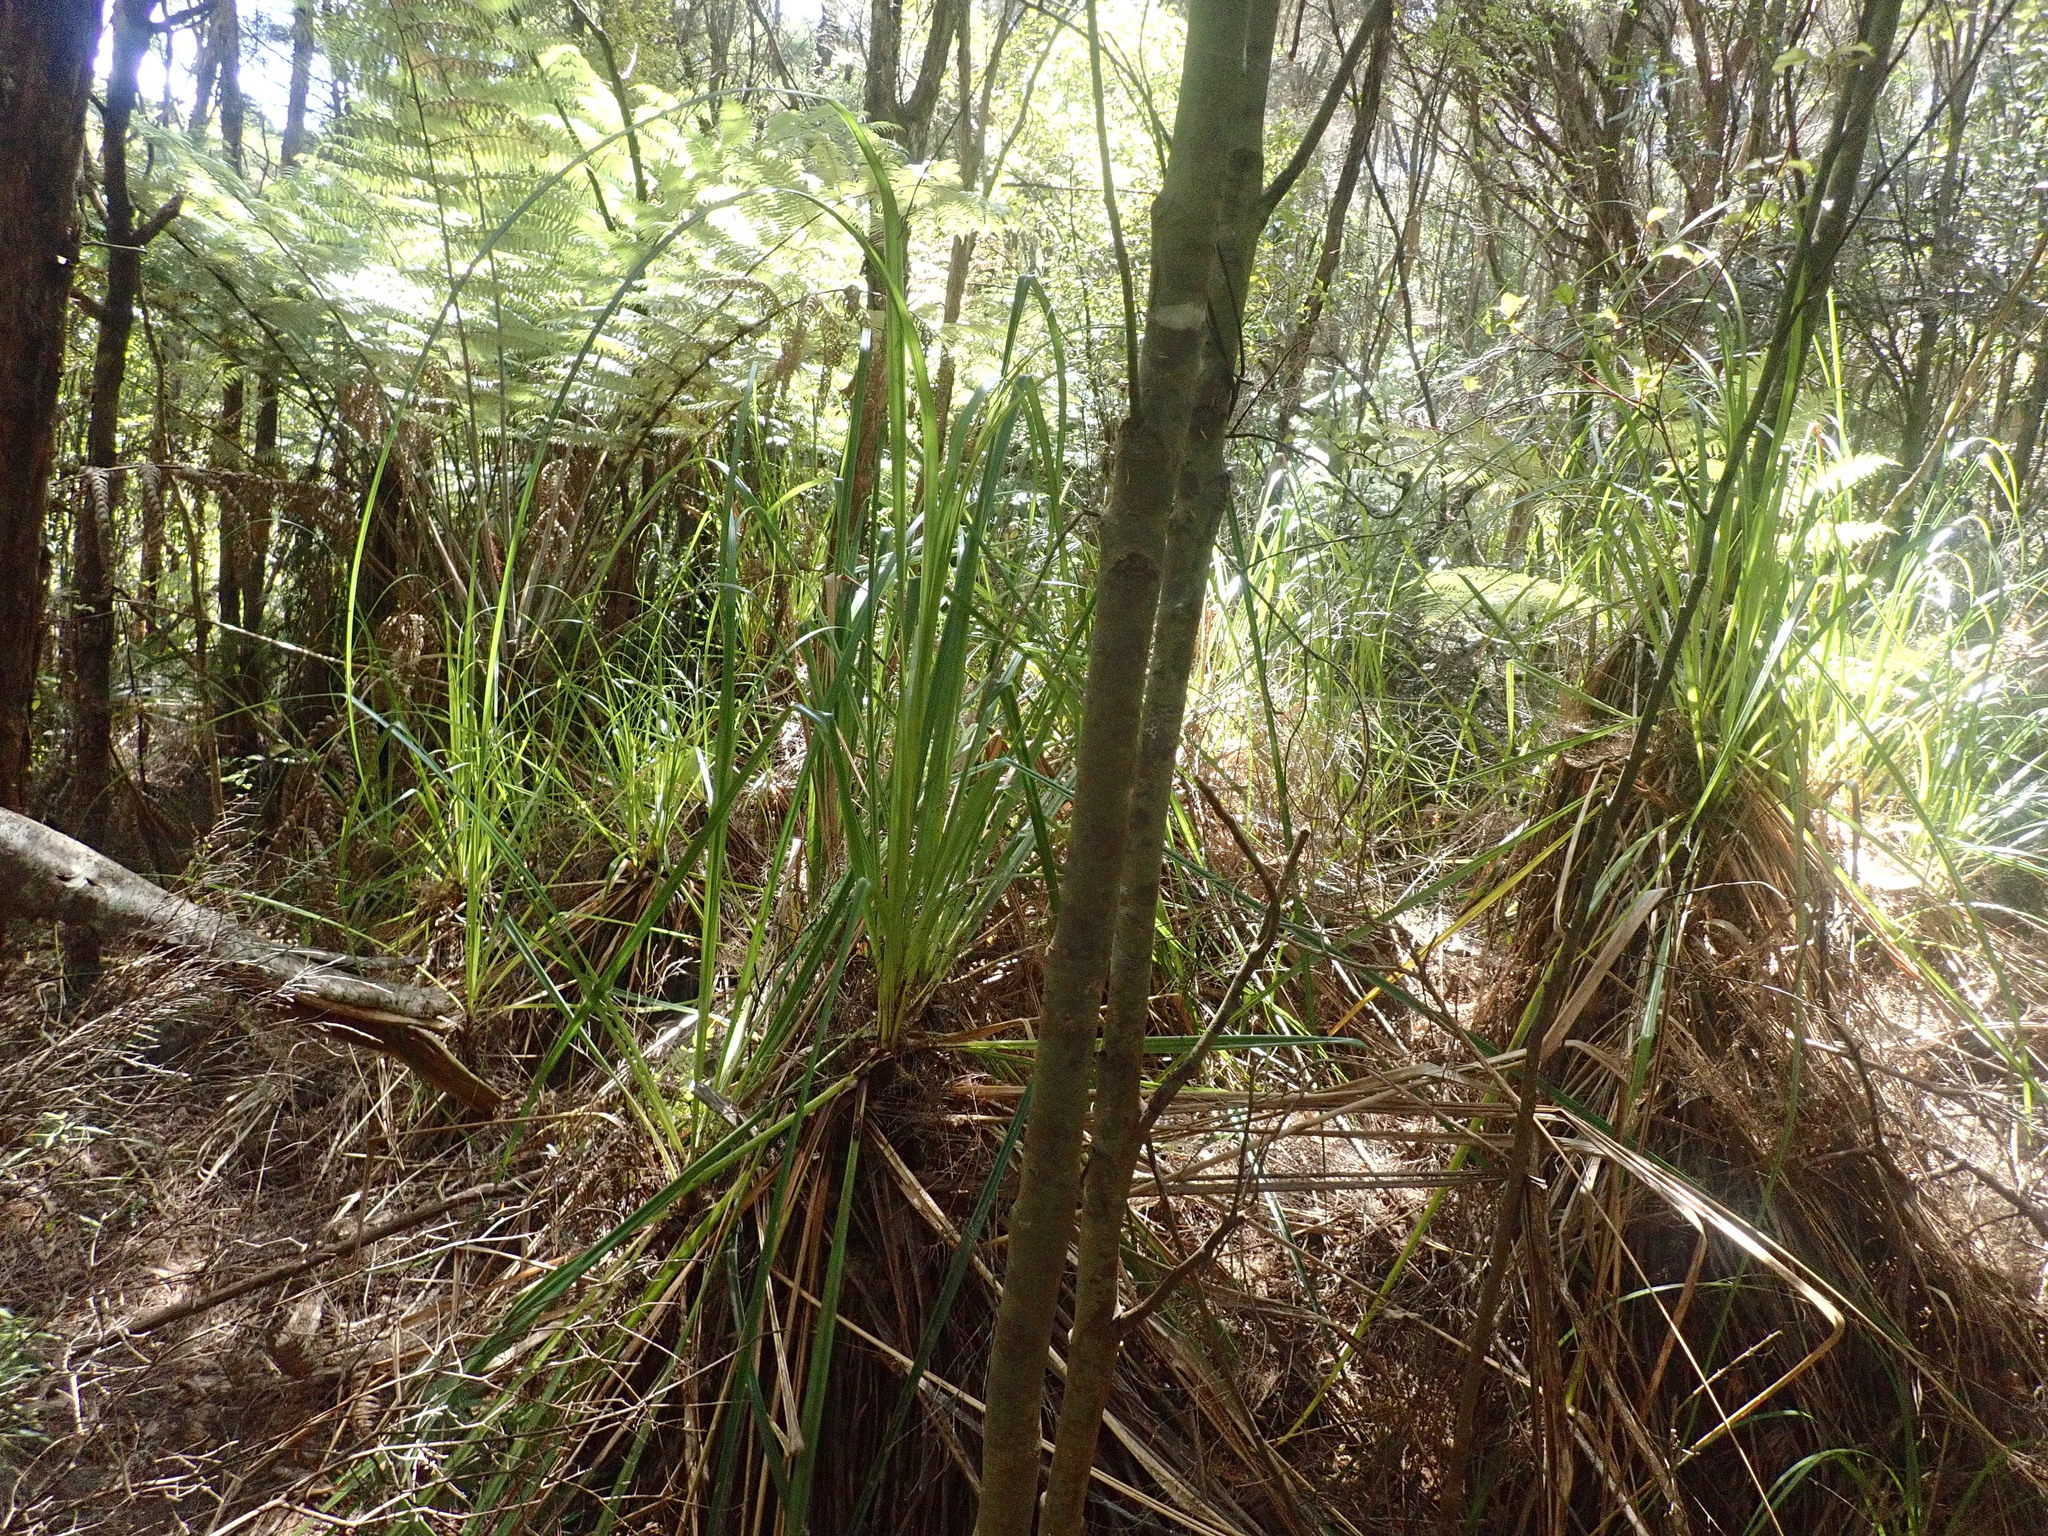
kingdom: Plantae
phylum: Tracheophyta
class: Liliopsida
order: Poales
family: Cyperaceae
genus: Gahnia
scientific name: Gahnia xanthocarpa
